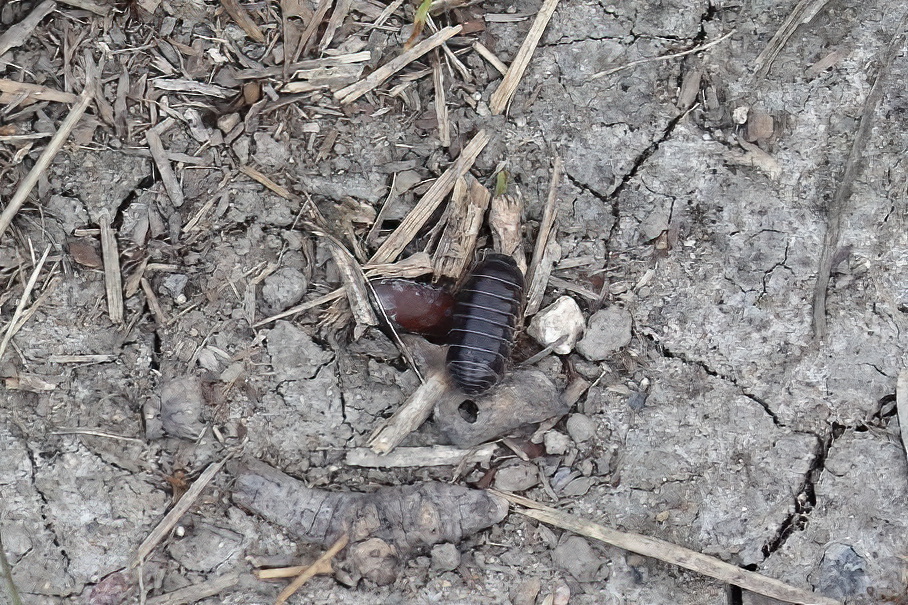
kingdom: Animalia
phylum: Arthropoda
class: Malacostraca
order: Isopoda
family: Armadillidiidae
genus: Armadillidium
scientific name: Armadillidium vulgare
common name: Common pill woodlouse
